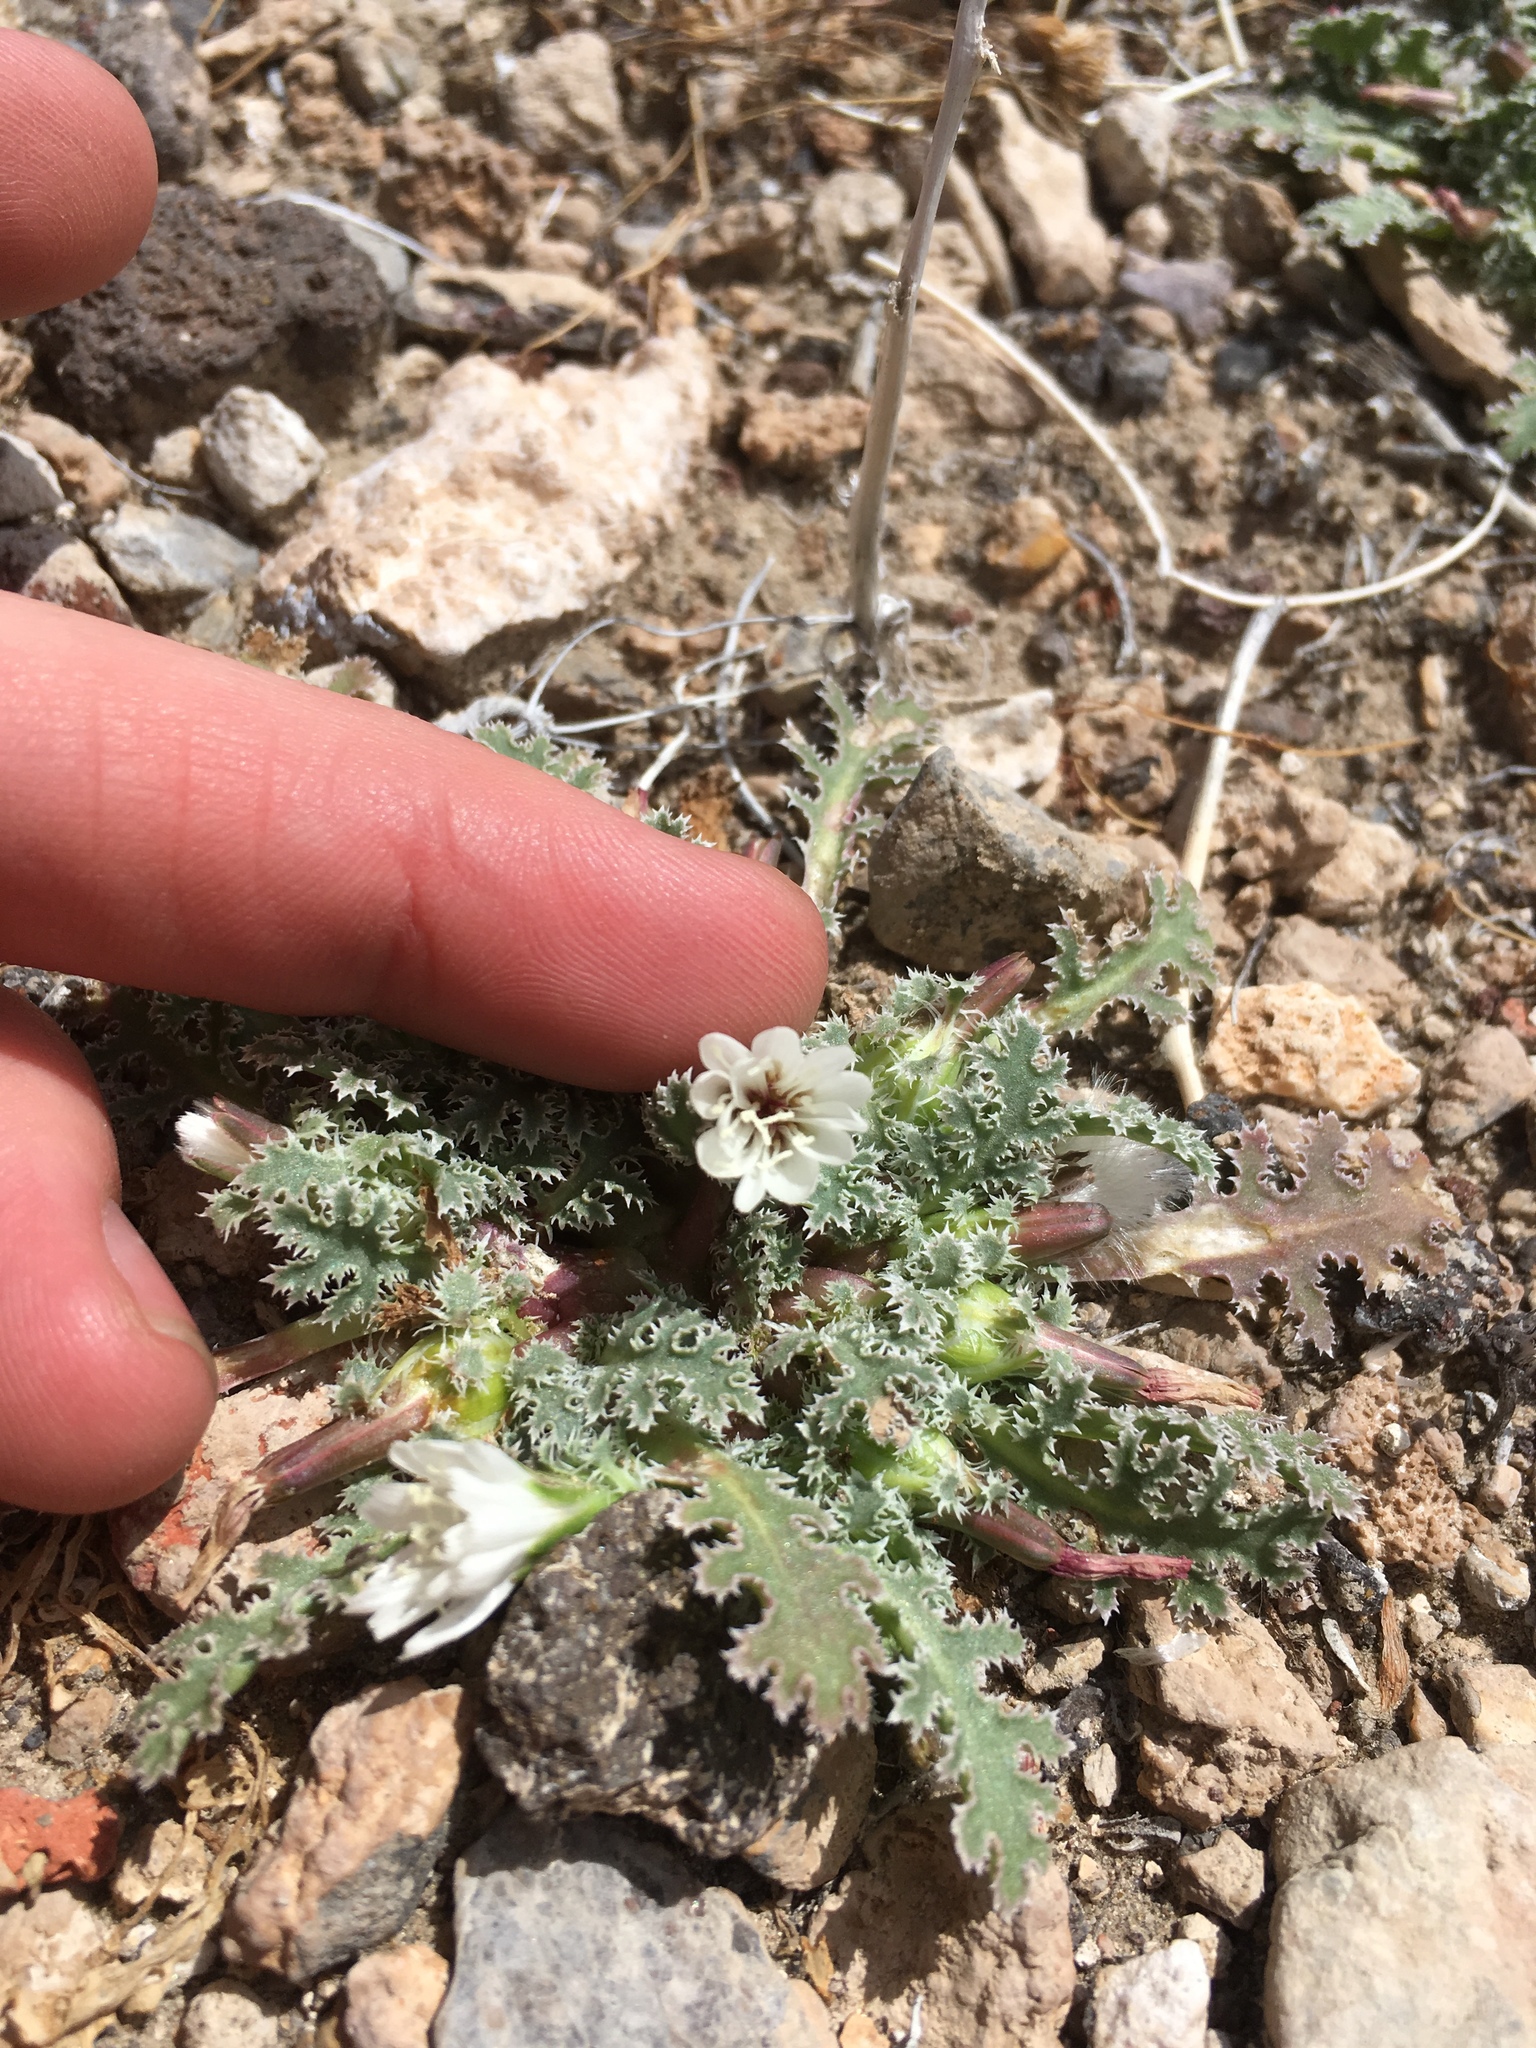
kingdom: Plantae
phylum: Tracheophyta
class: Magnoliopsida
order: Asterales
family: Asteraceae
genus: Glyptopleura
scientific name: Glyptopleura marginata
